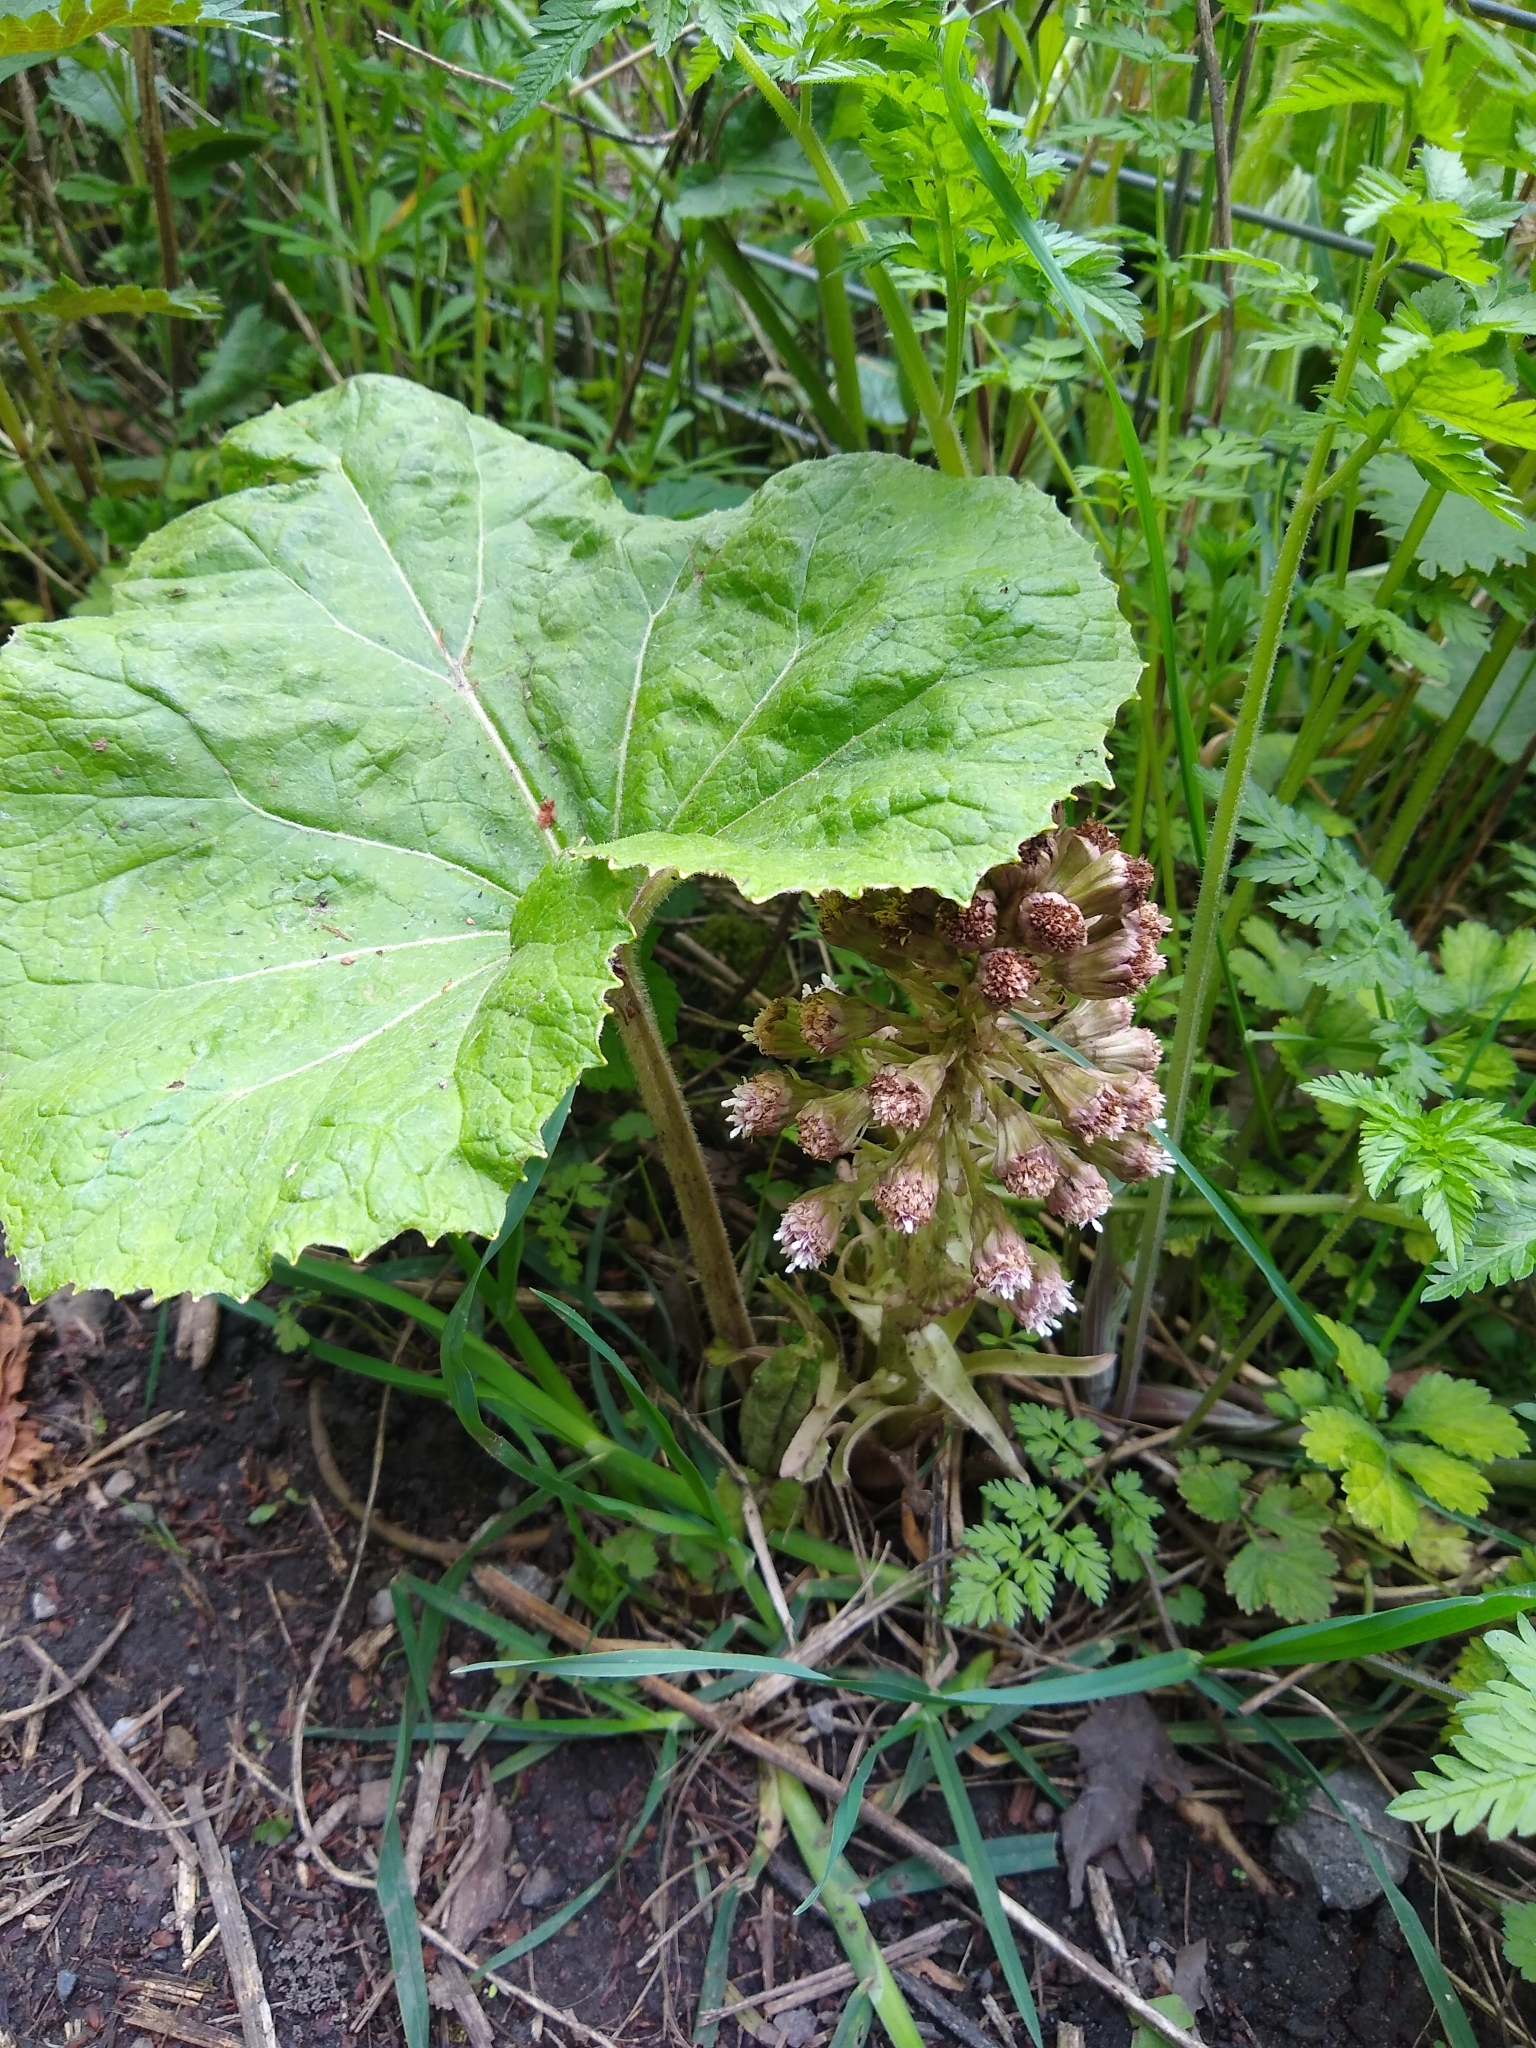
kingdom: Plantae
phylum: Tracheophyta
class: Magnoliopsida
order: Asterales
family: Asteraceae
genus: Petasites
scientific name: Petasites hybridus
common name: Butterbur
